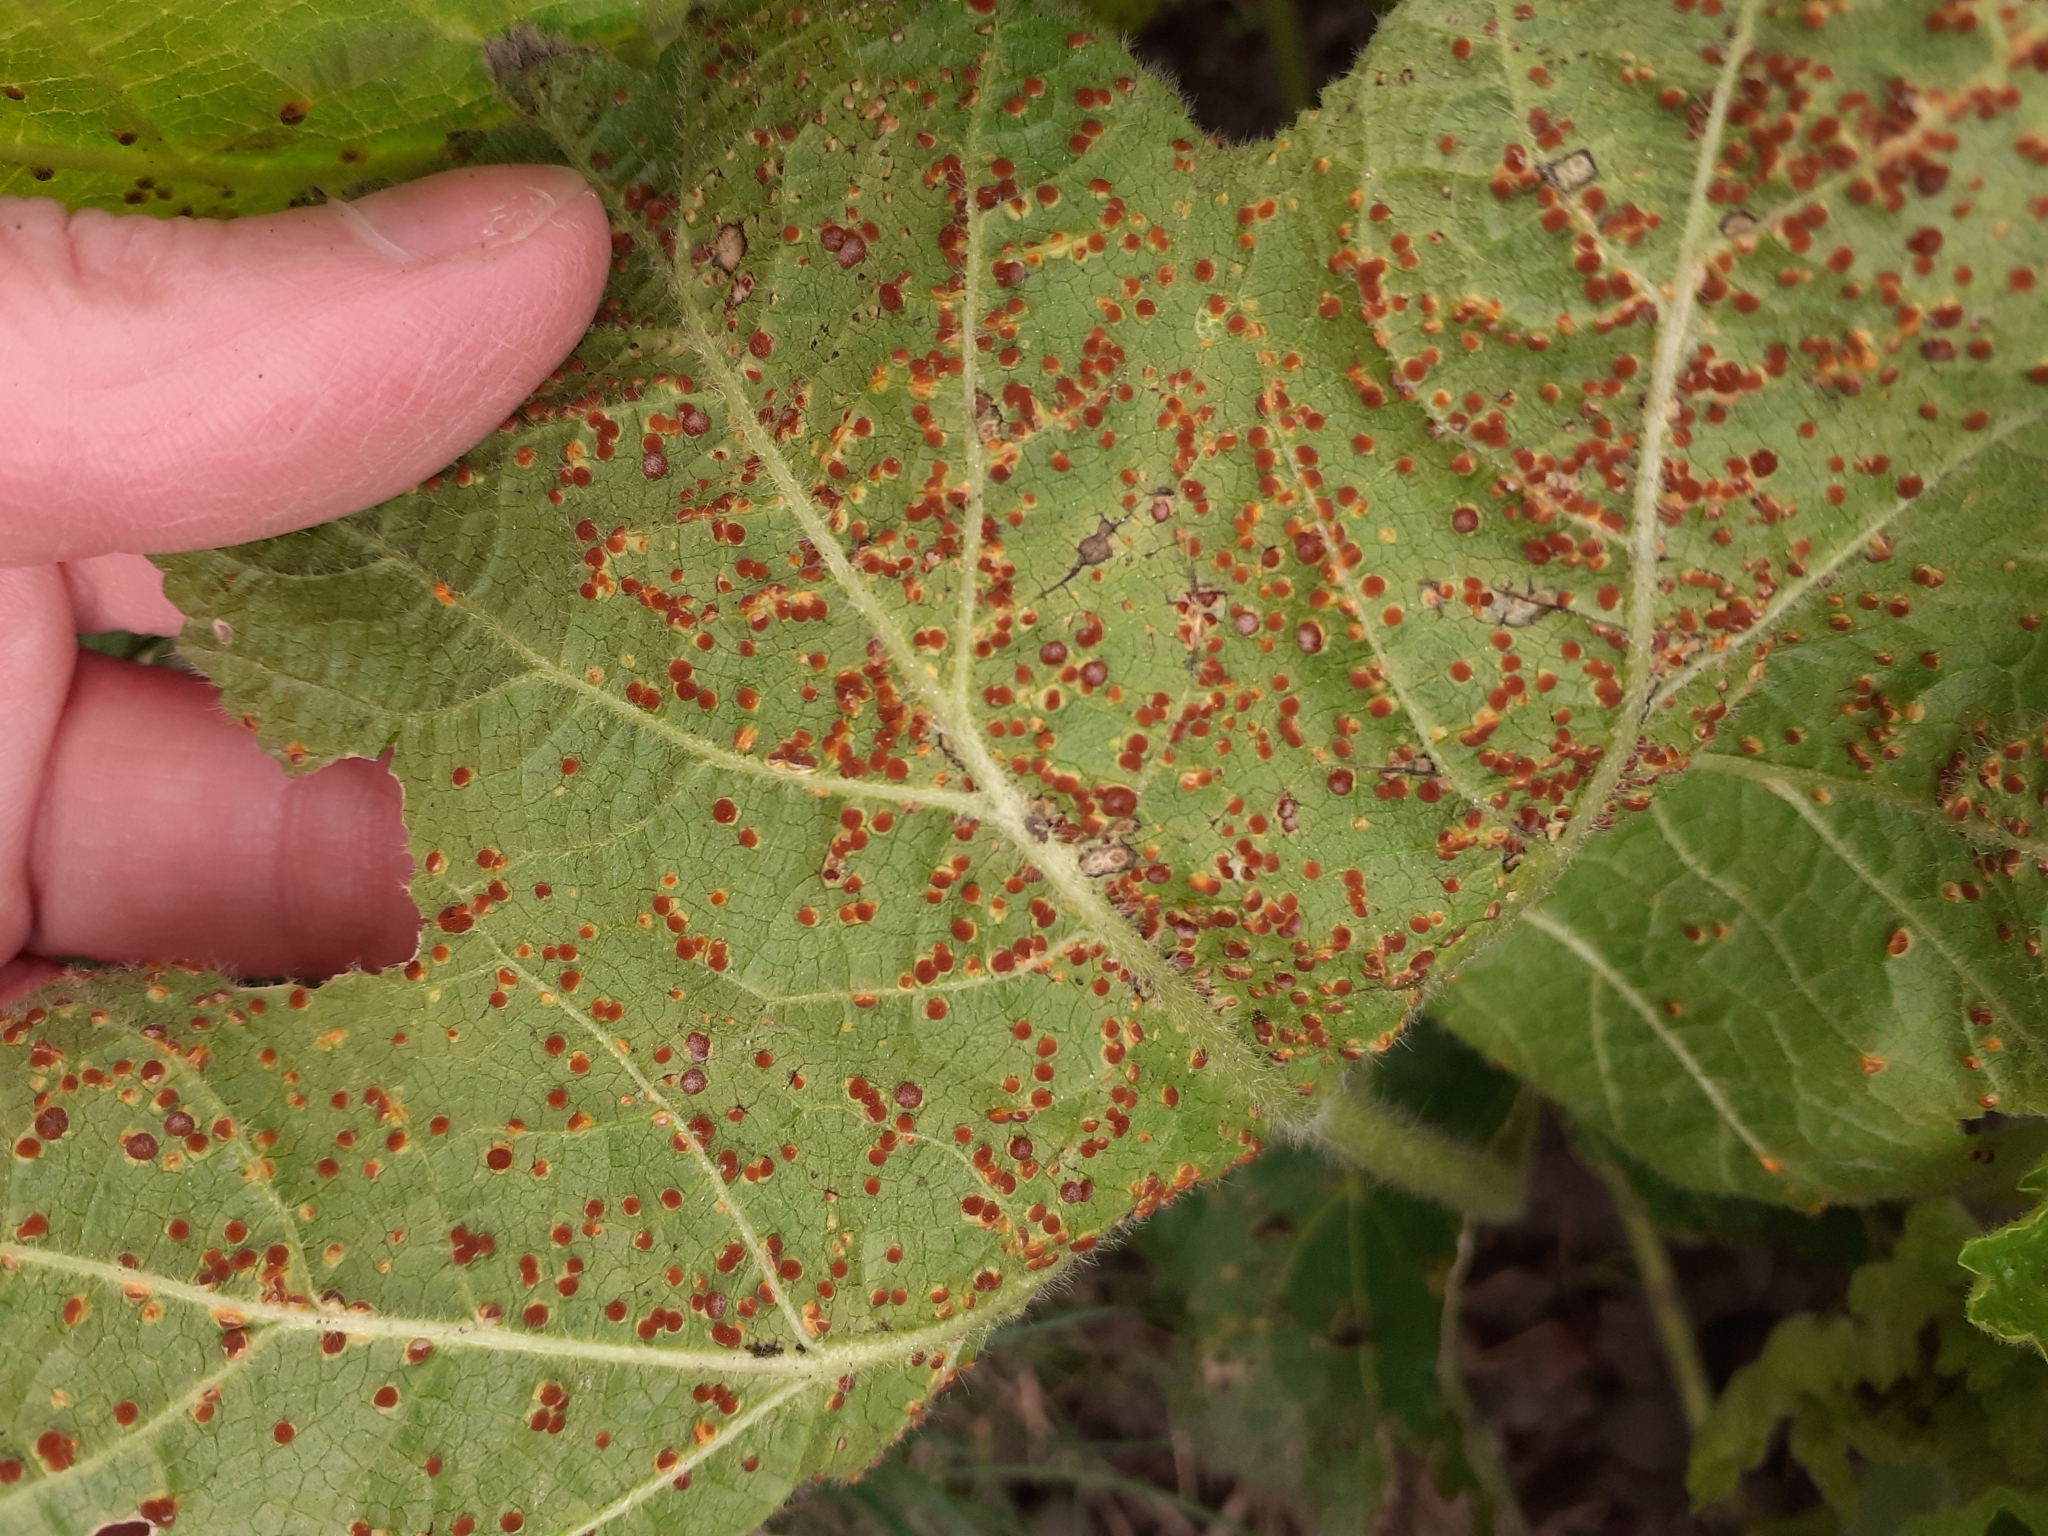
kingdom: Fungi
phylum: Basidiomycota
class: Pucciniomycetes
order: Pucciniales
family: Pucciniaceae
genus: Puccinia
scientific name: Puccinia malvacearum
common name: Hollyhock rust
